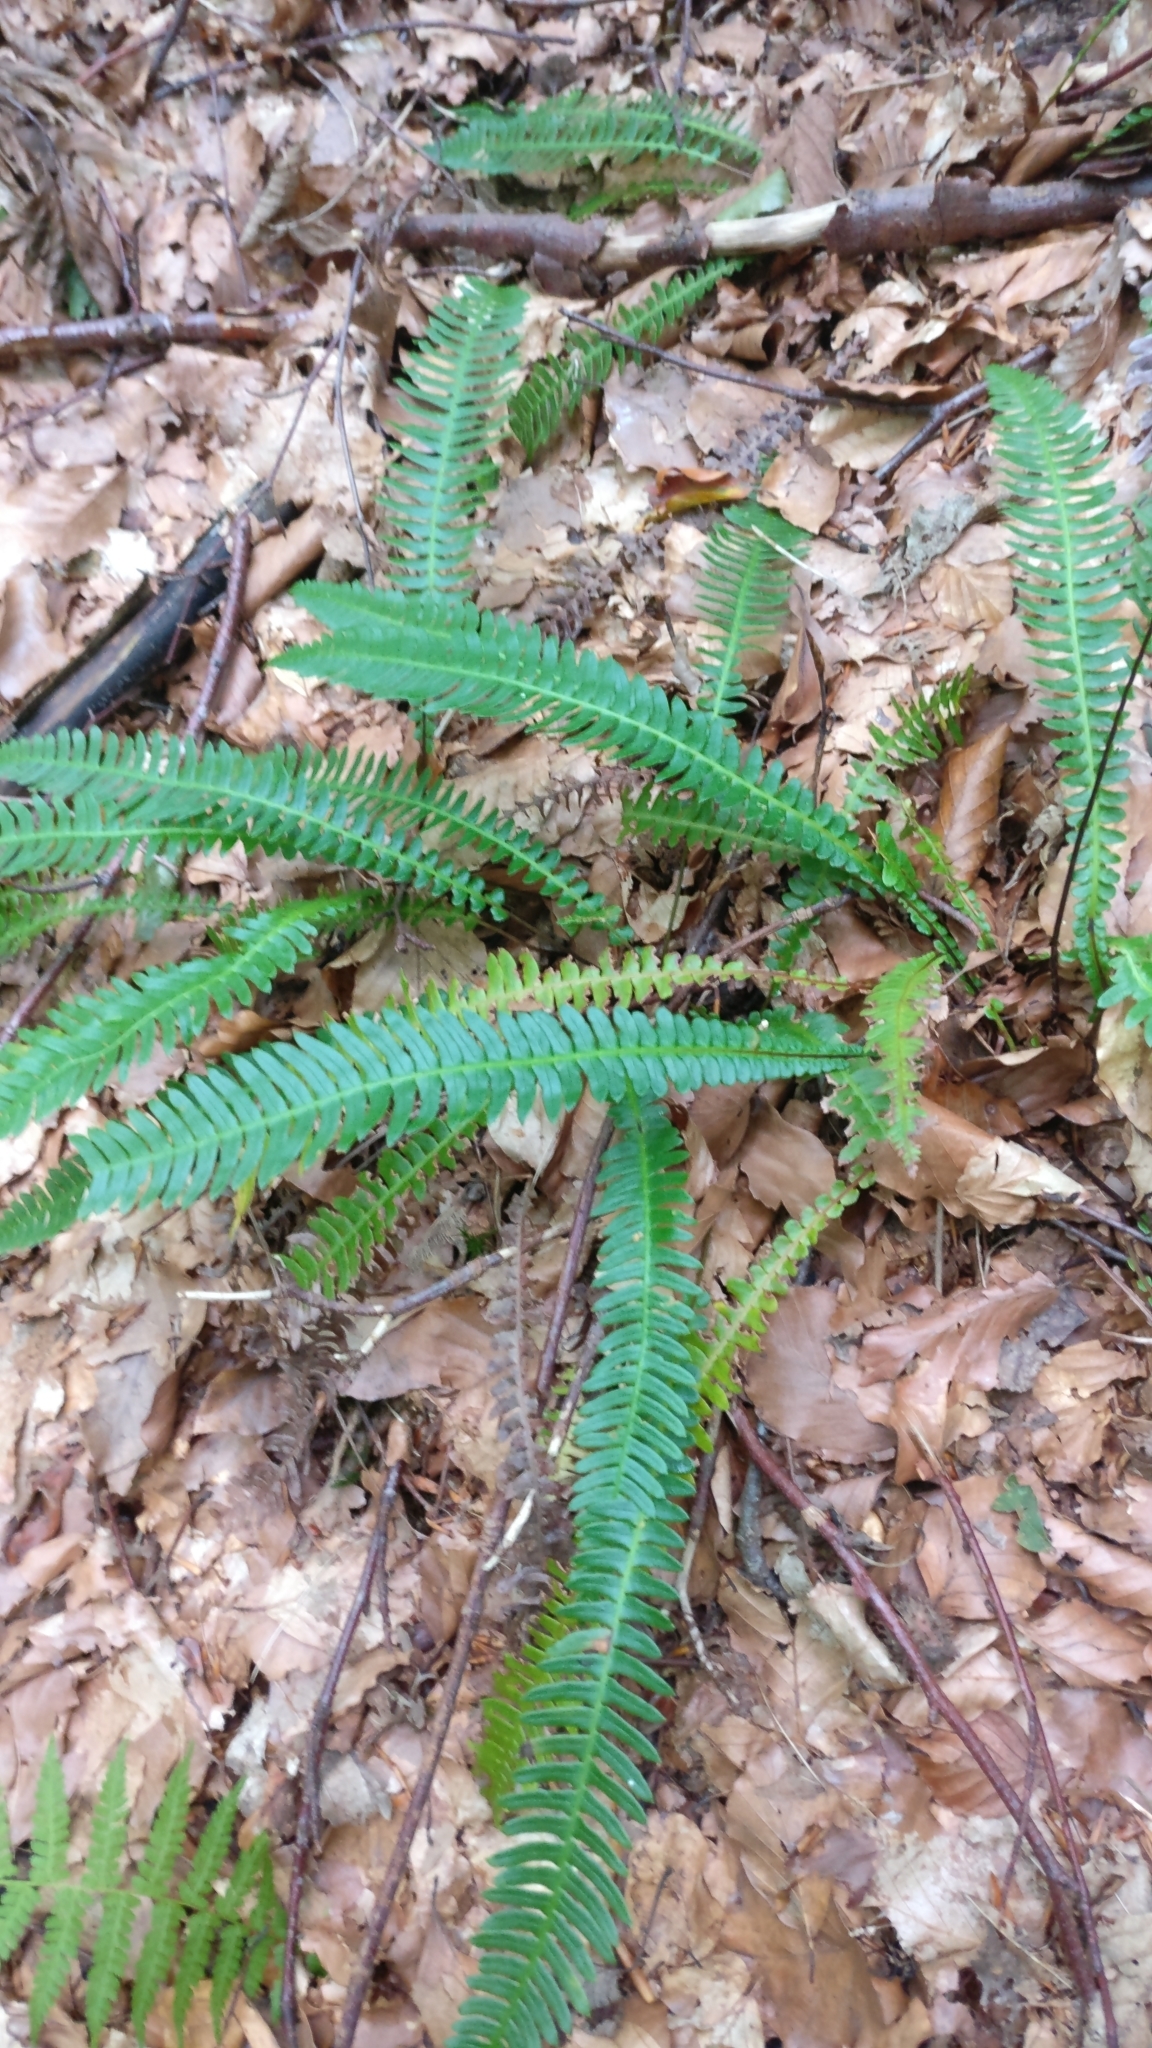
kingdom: Plantae
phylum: Tracheophyta
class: Polypodiopsida
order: Polypodiales
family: Blechnaceae
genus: Struthiopteris
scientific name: Struthiopteris spicant
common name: Deer fern
